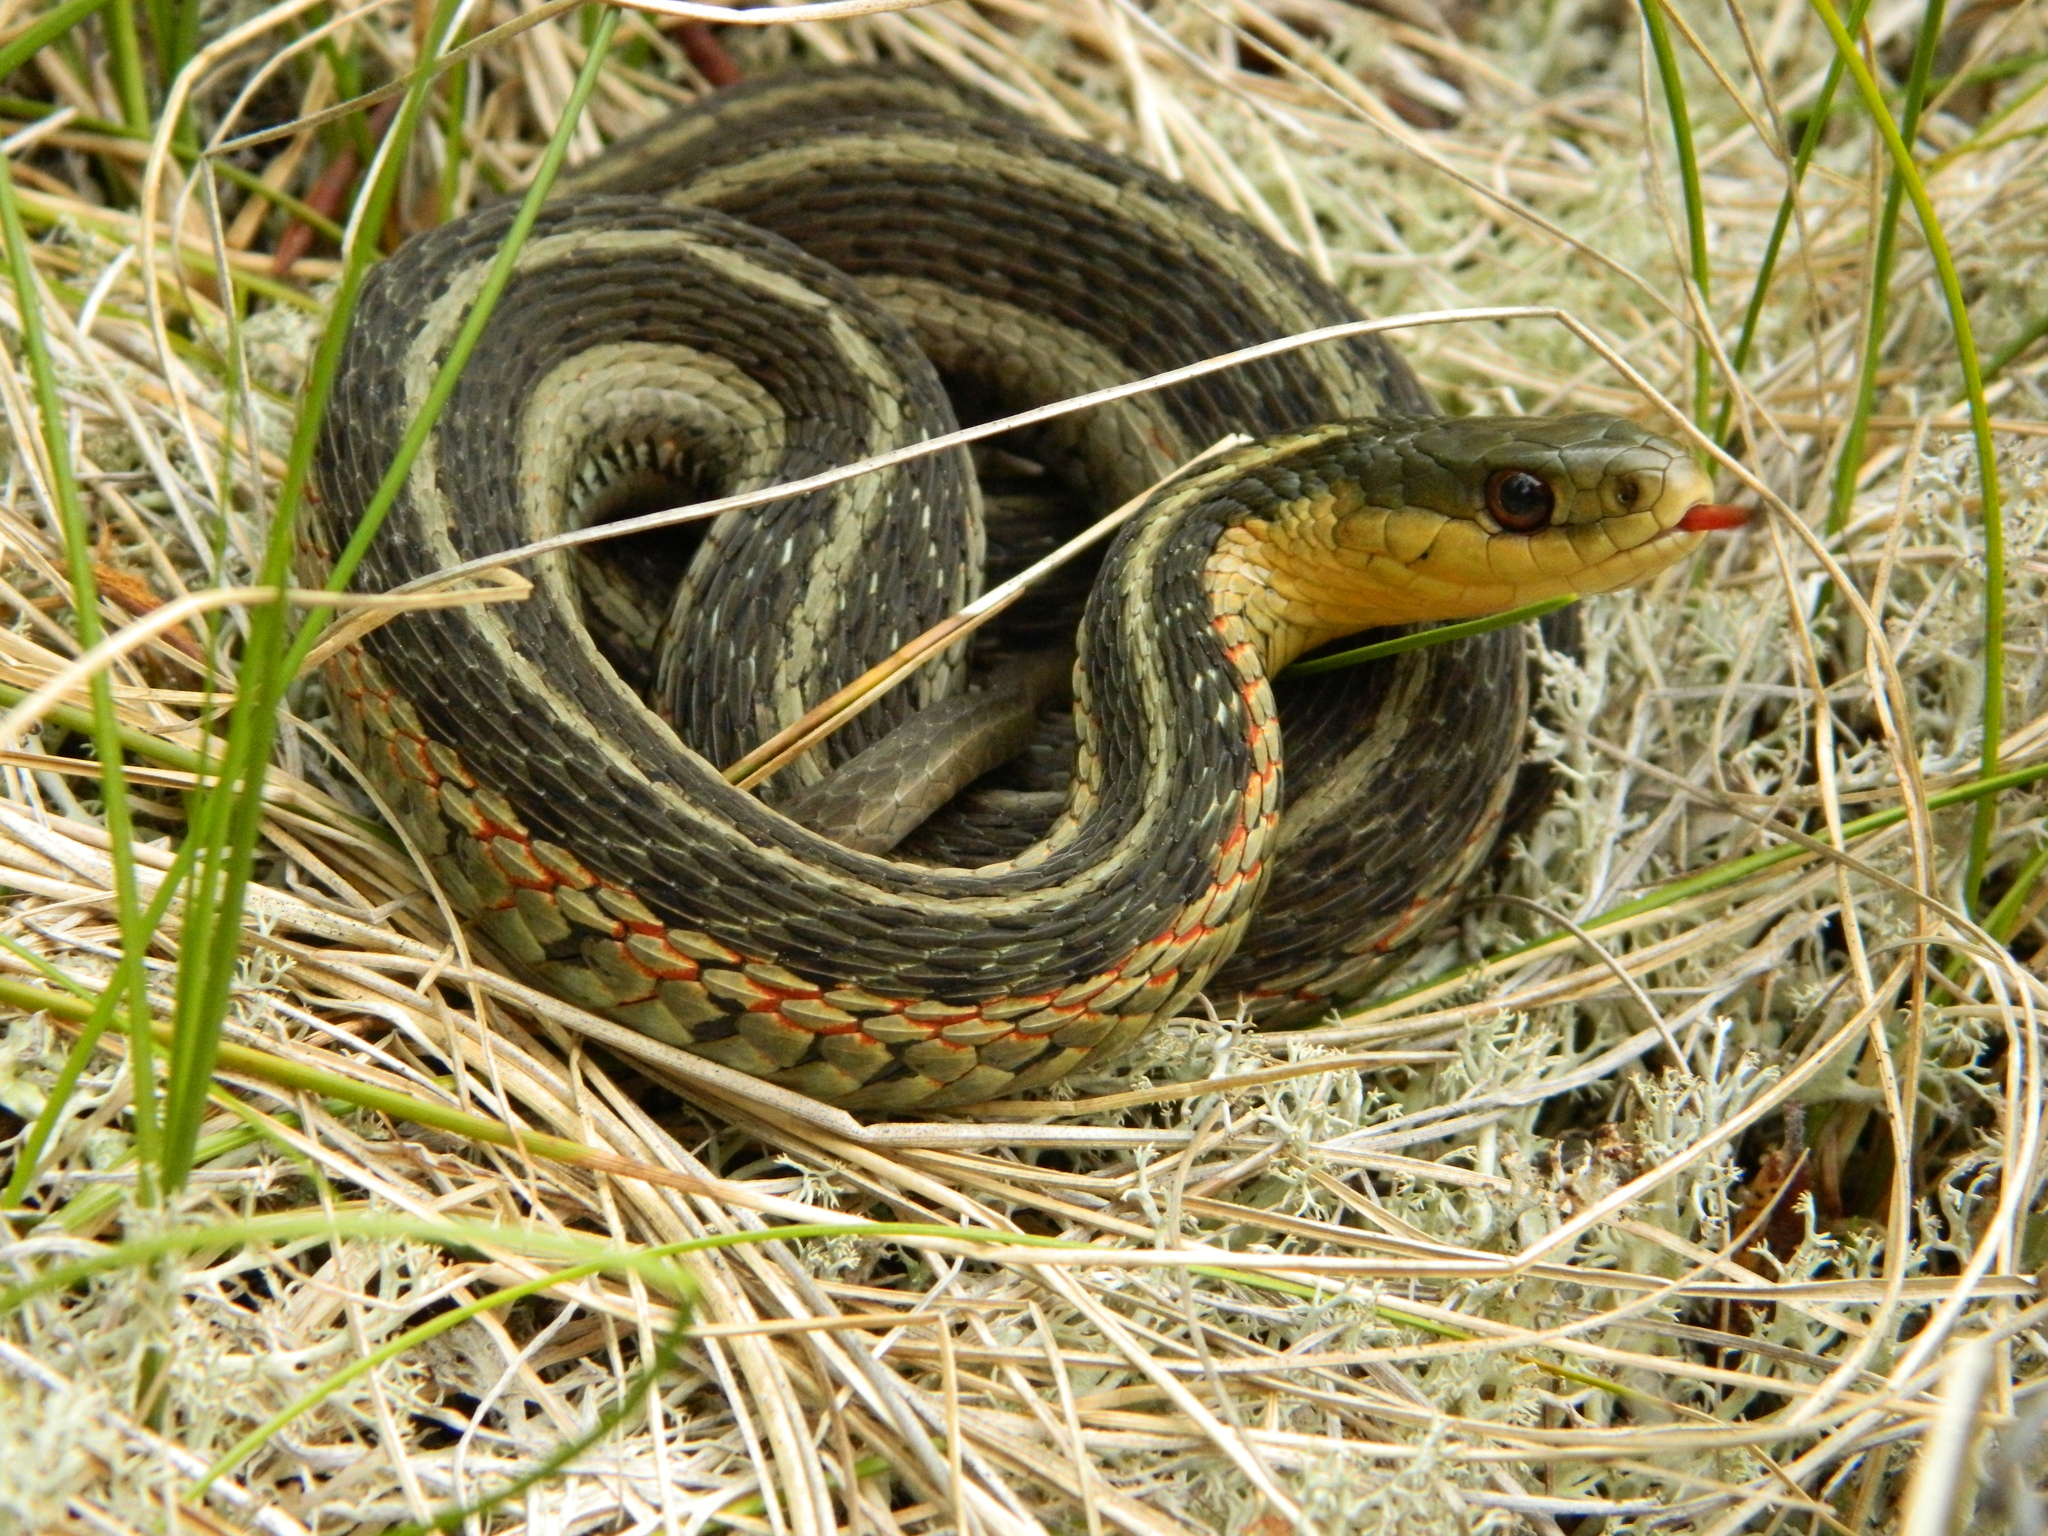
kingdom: Animalia
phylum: Chordata
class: Squamata
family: Colubridae
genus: Thamnophis
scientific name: Thamnophis sirtalis
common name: Common garter snake
